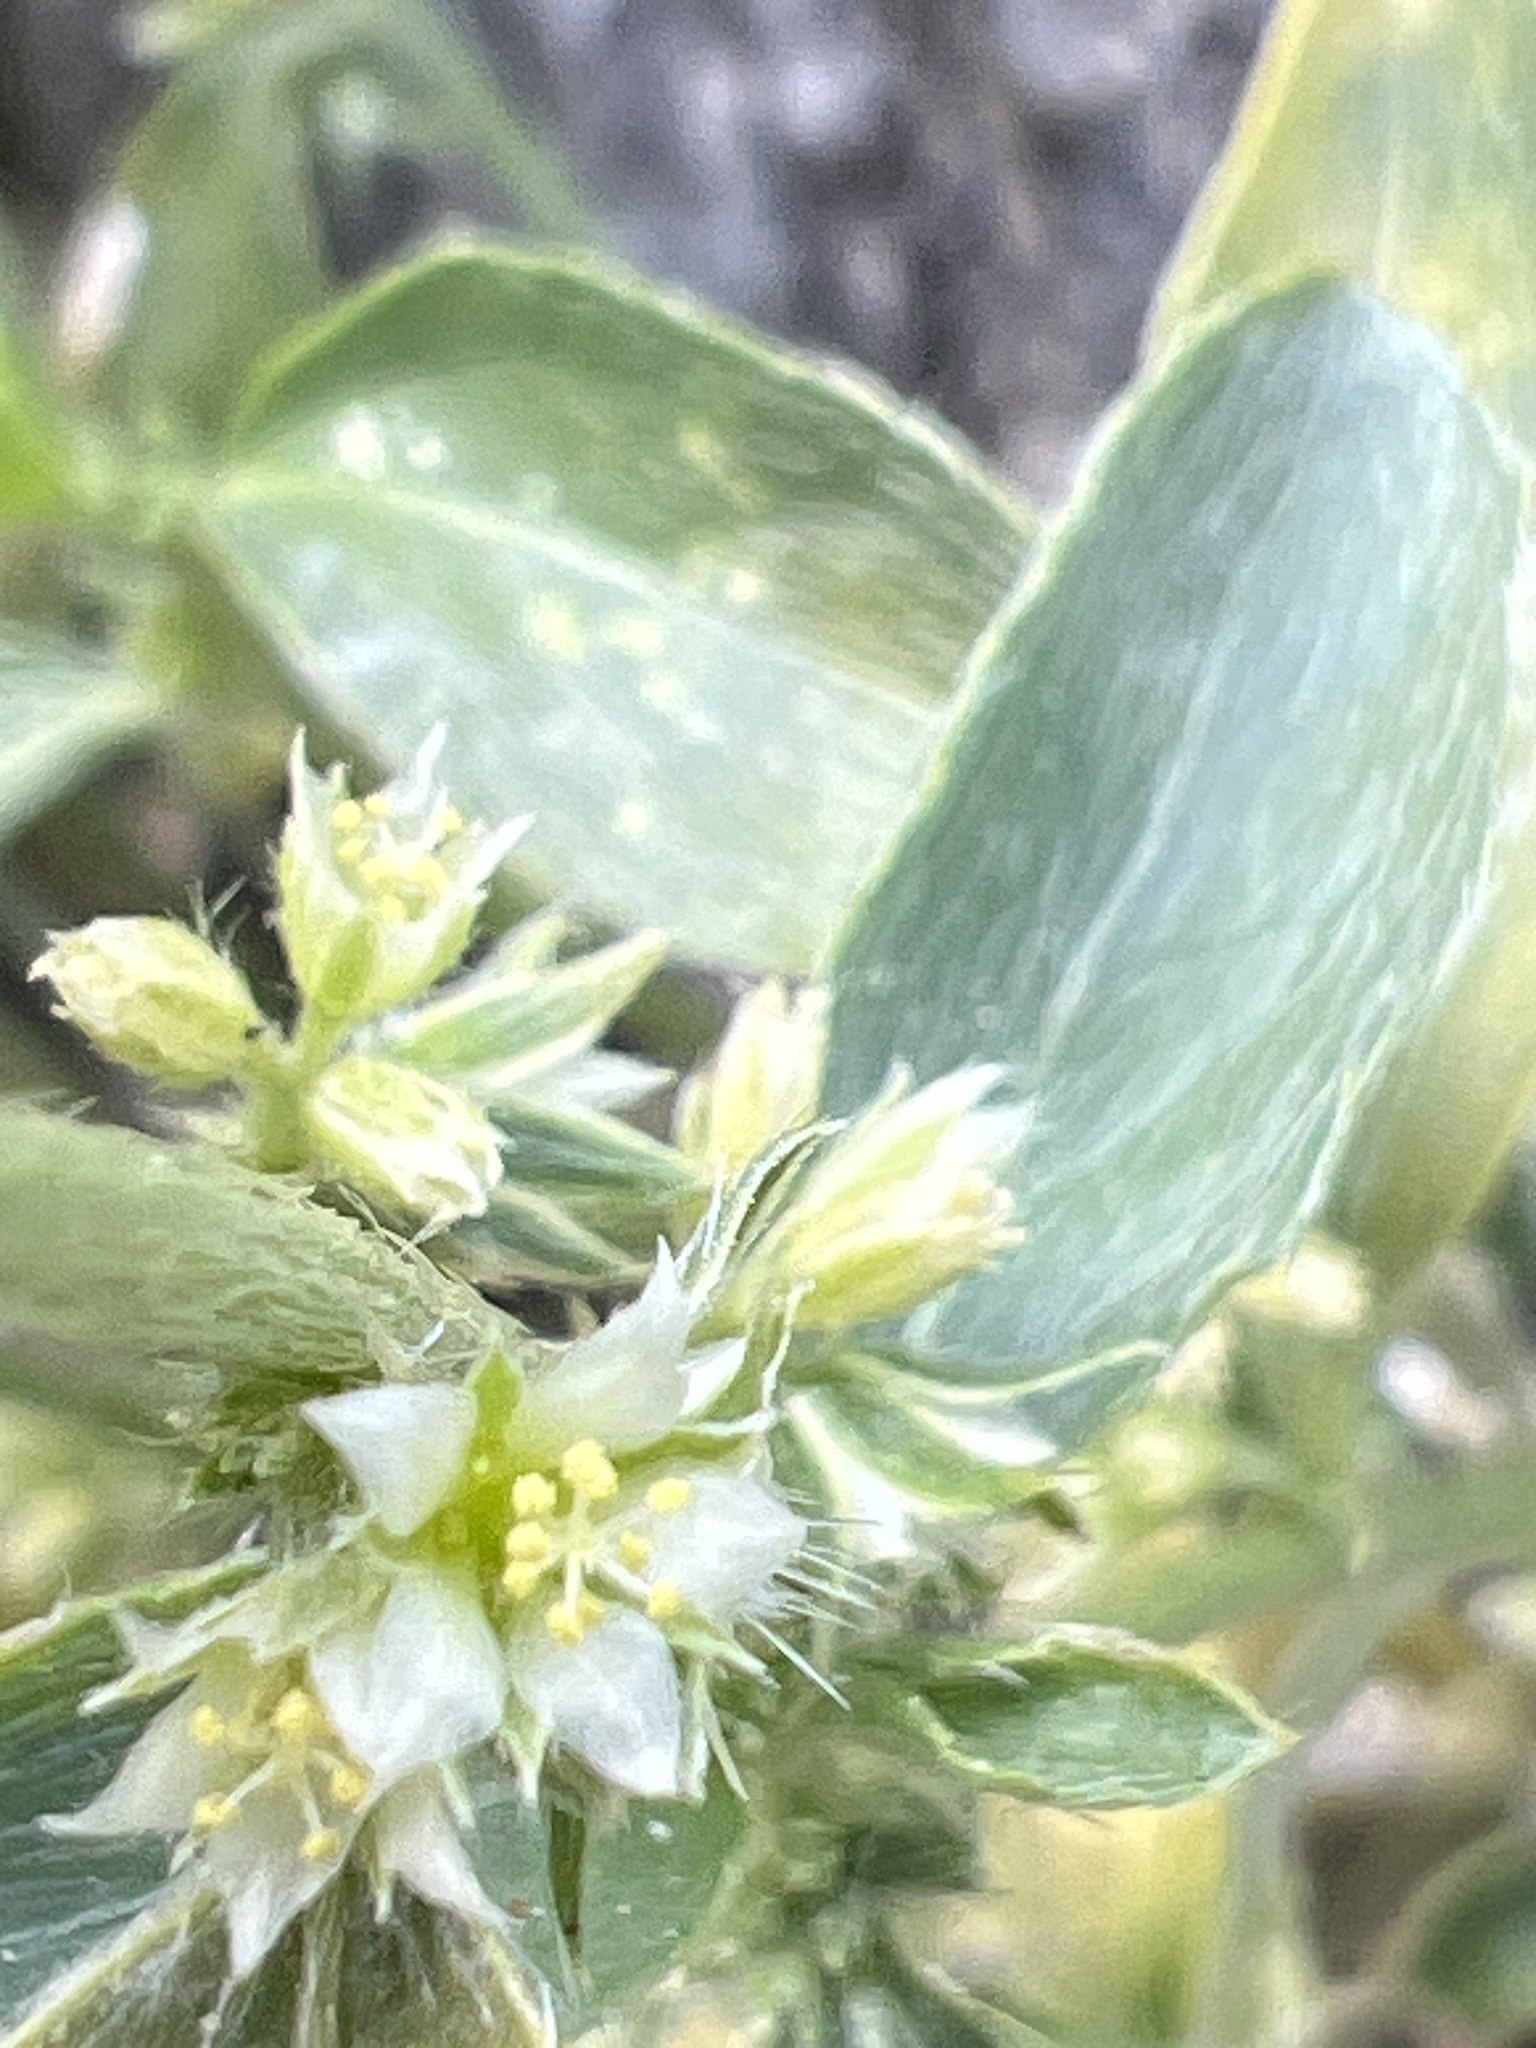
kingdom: Plantae
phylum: Tracheophyta
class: Magnoliopsida
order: Malpighiales
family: Euphorbiaceae
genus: Ditaxis
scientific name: Ditaxis serrata
